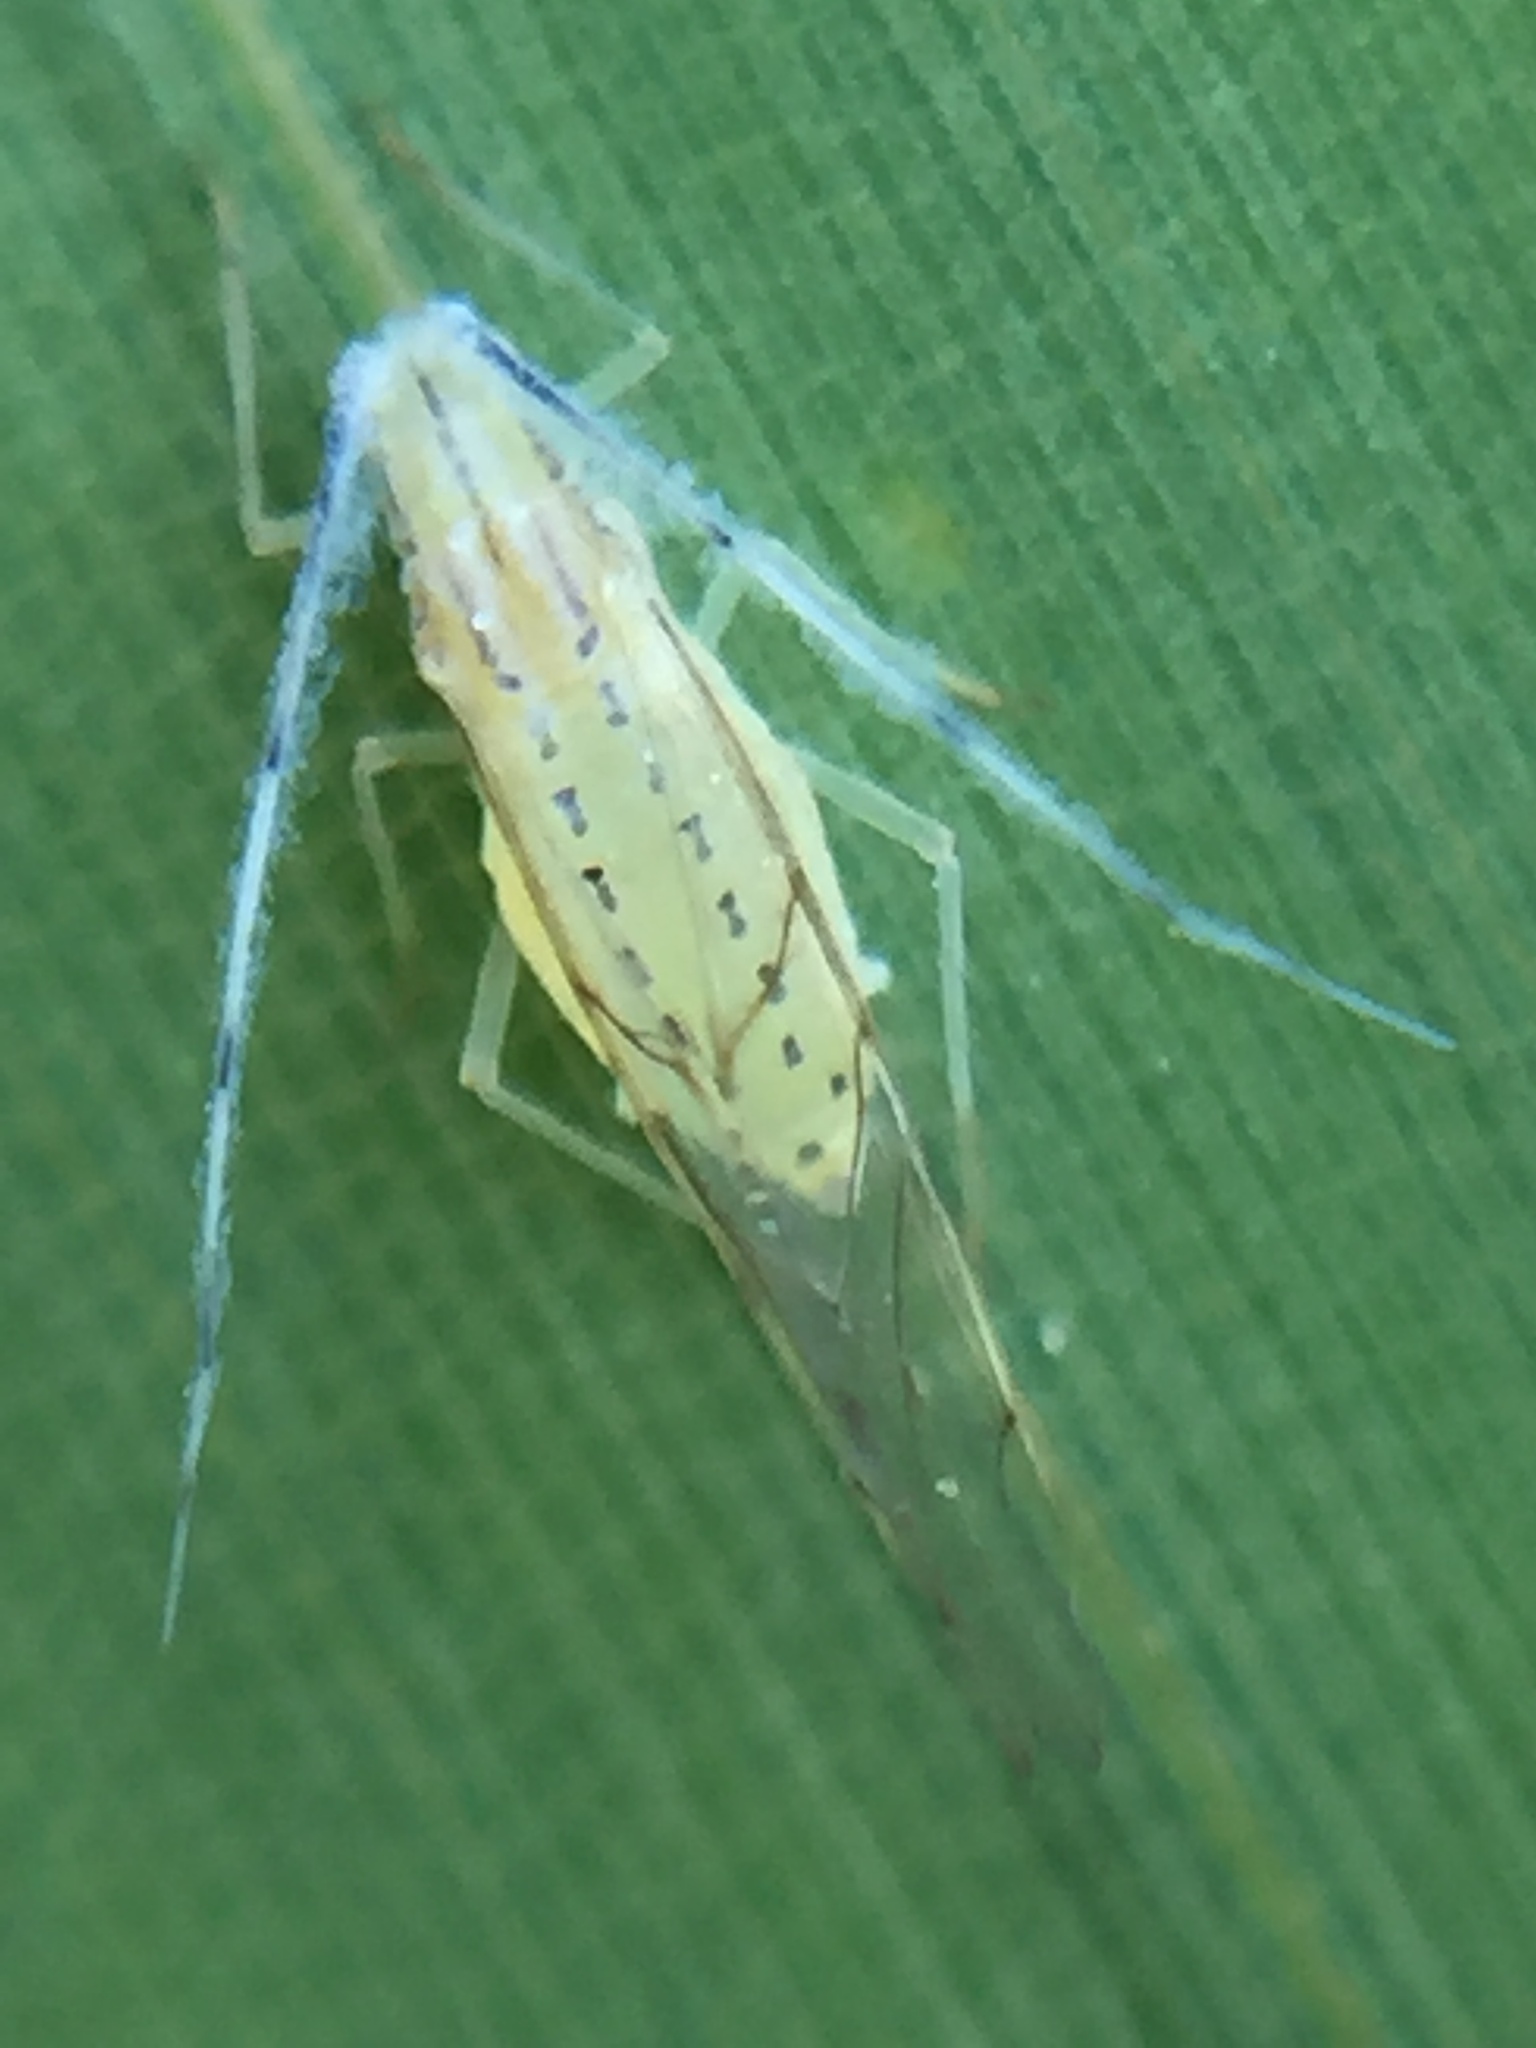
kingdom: Animalia
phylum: Arthropoda
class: Insecta
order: Hemiptera
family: Aphididae
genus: Takecallis
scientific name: Takecallis arundinariae
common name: Black-tailed bamboo aphid
